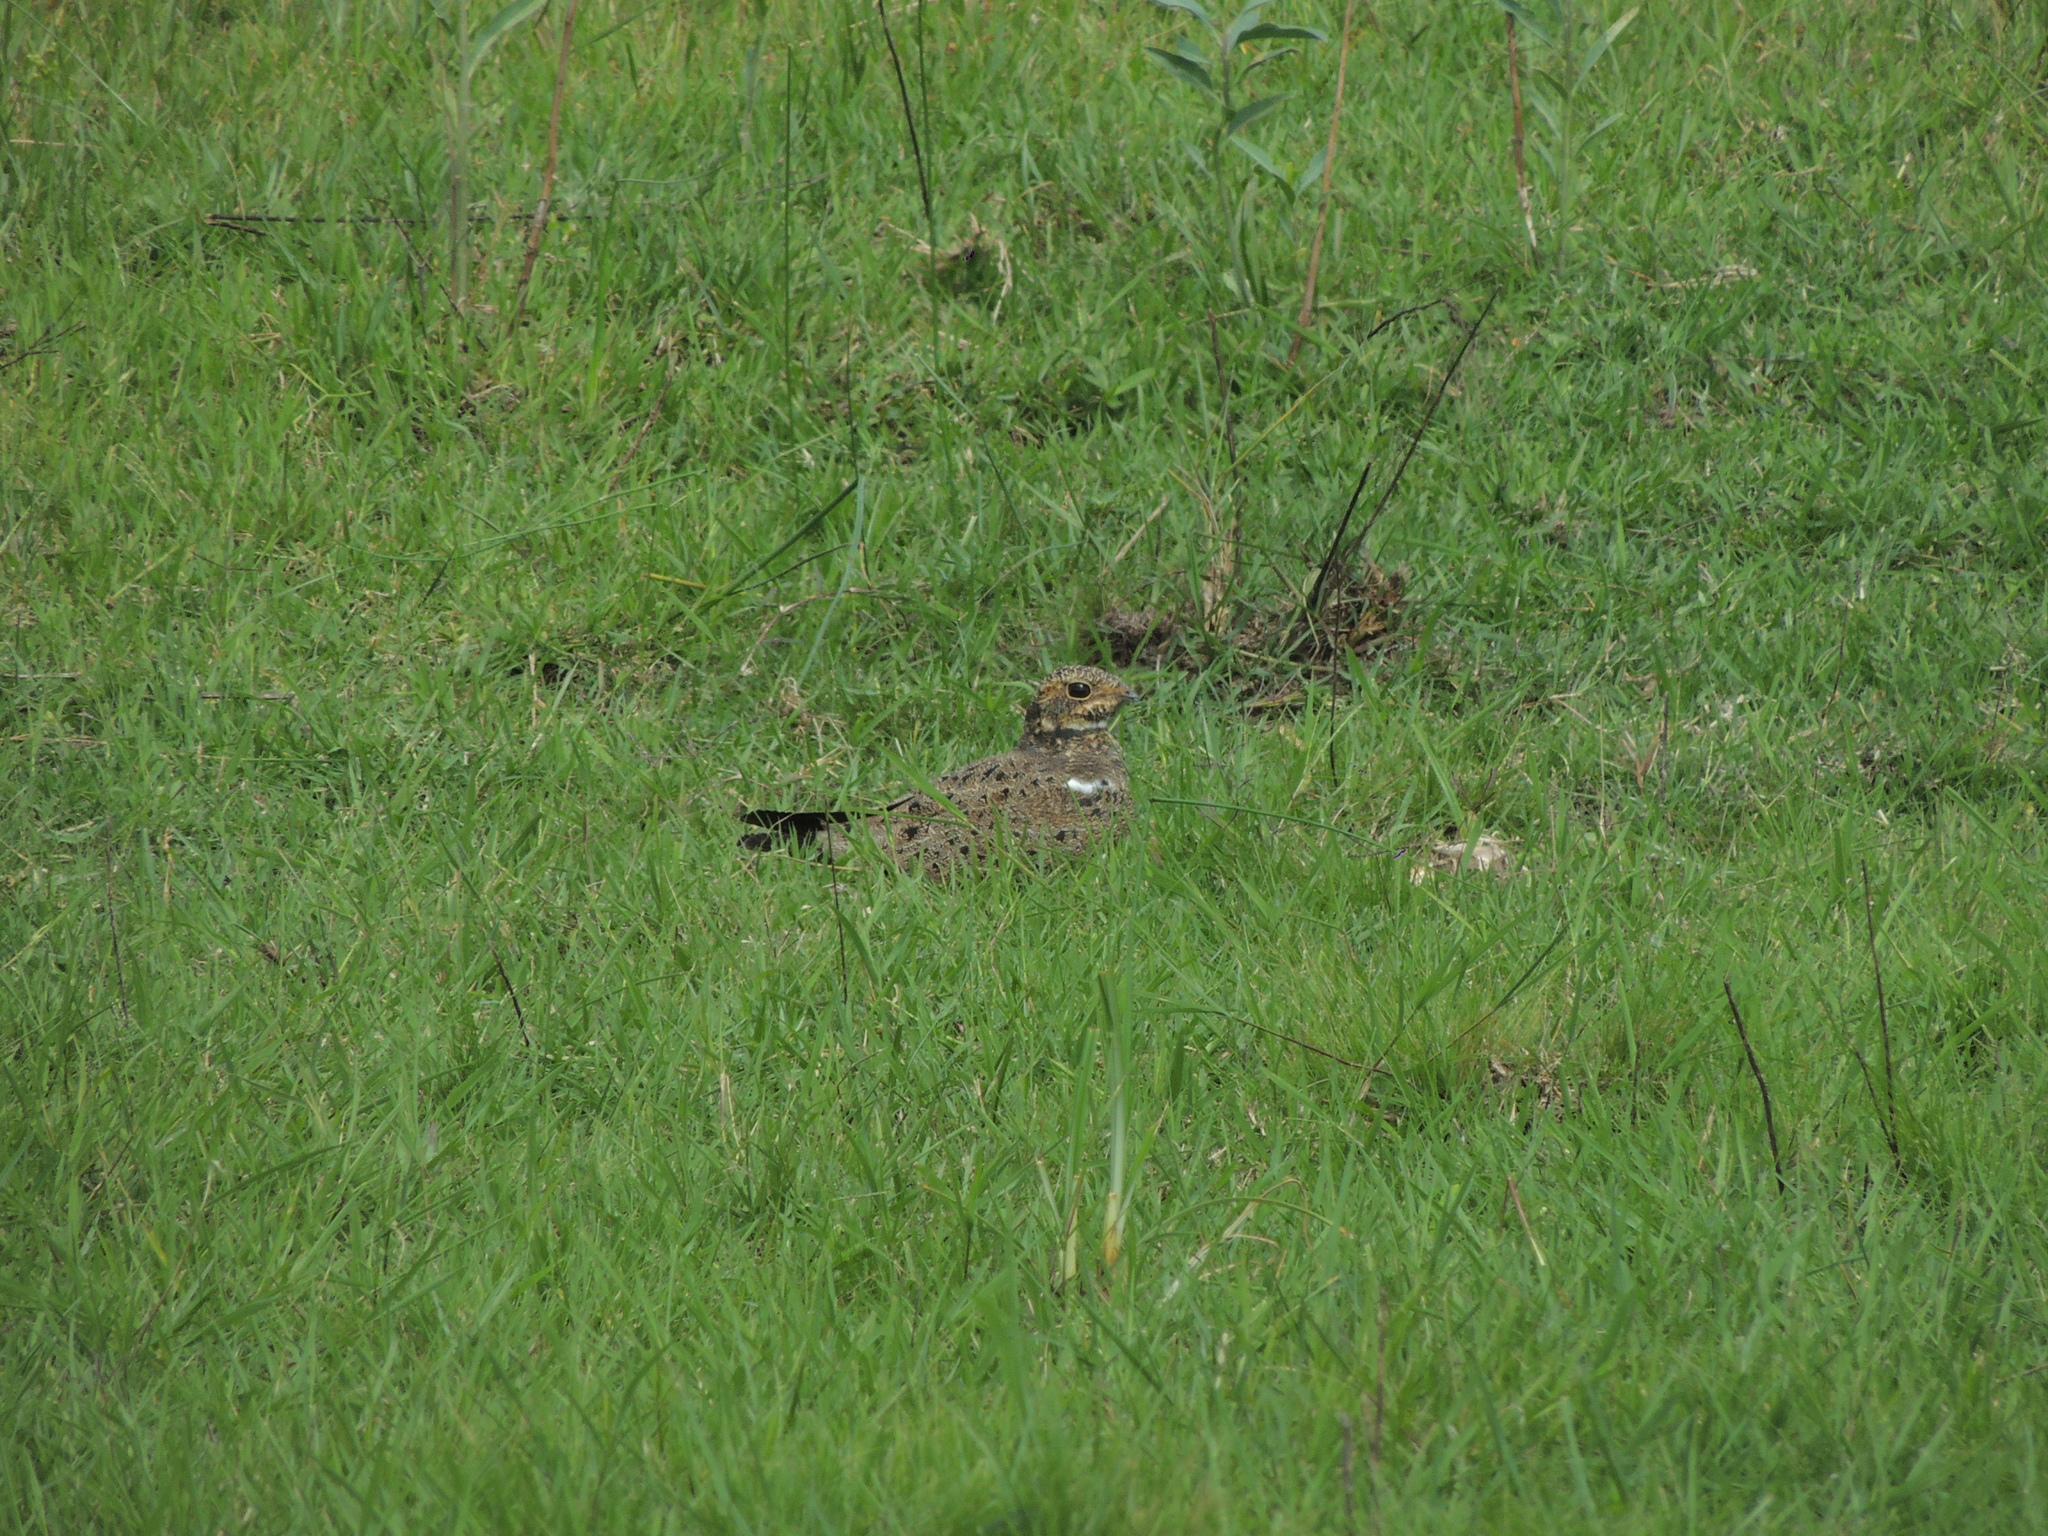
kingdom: Animalia
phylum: Chordata
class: Aves
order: Caprimulgiformes
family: Caprimulgidae
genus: Chordeiles
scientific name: Chordeiles nacunda
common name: Nacunda nighthawk
